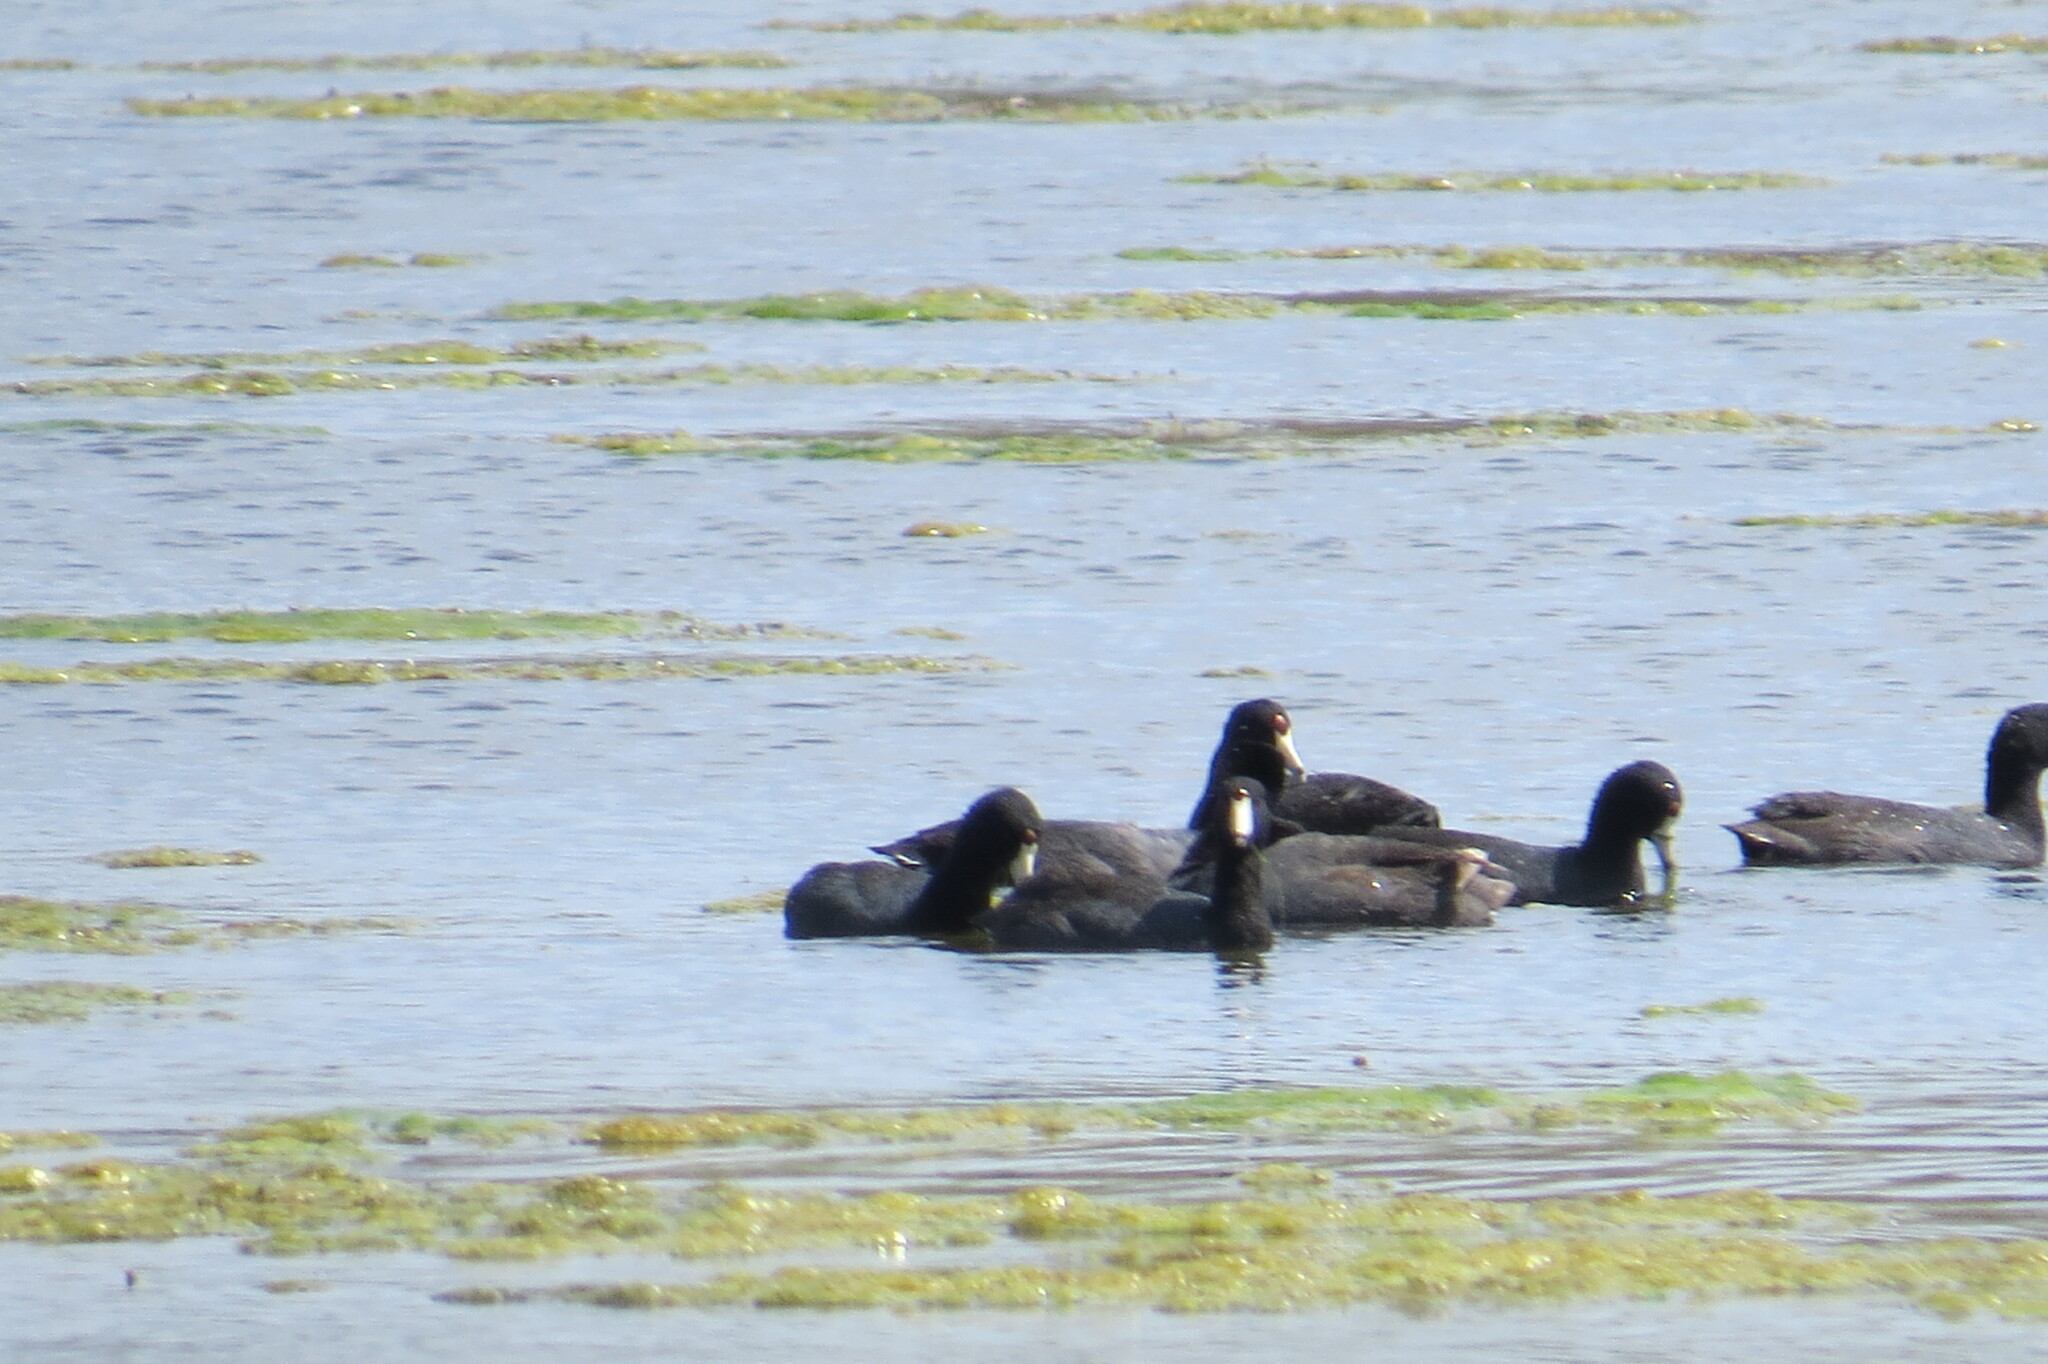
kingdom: Animalia
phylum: Chordata
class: Aves
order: Gruiformes
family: Rallidae
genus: Fulica
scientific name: Fulica americana
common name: American coot
